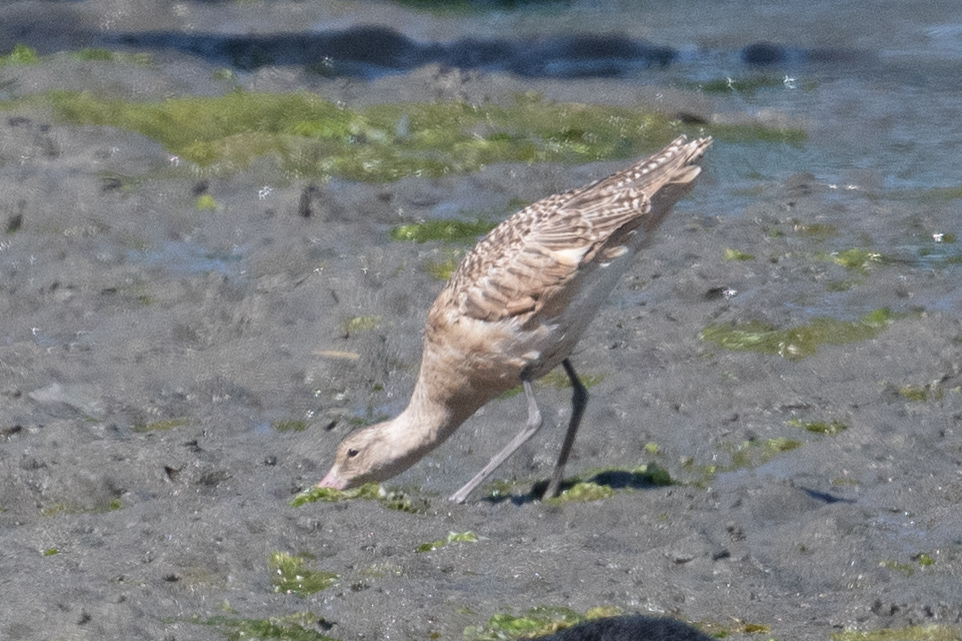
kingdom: Animalia
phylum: Chordata
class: Aves
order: Charadriiformes
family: Scolopacidae
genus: Limosa
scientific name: Limosa fedoa
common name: Marbled godwit
